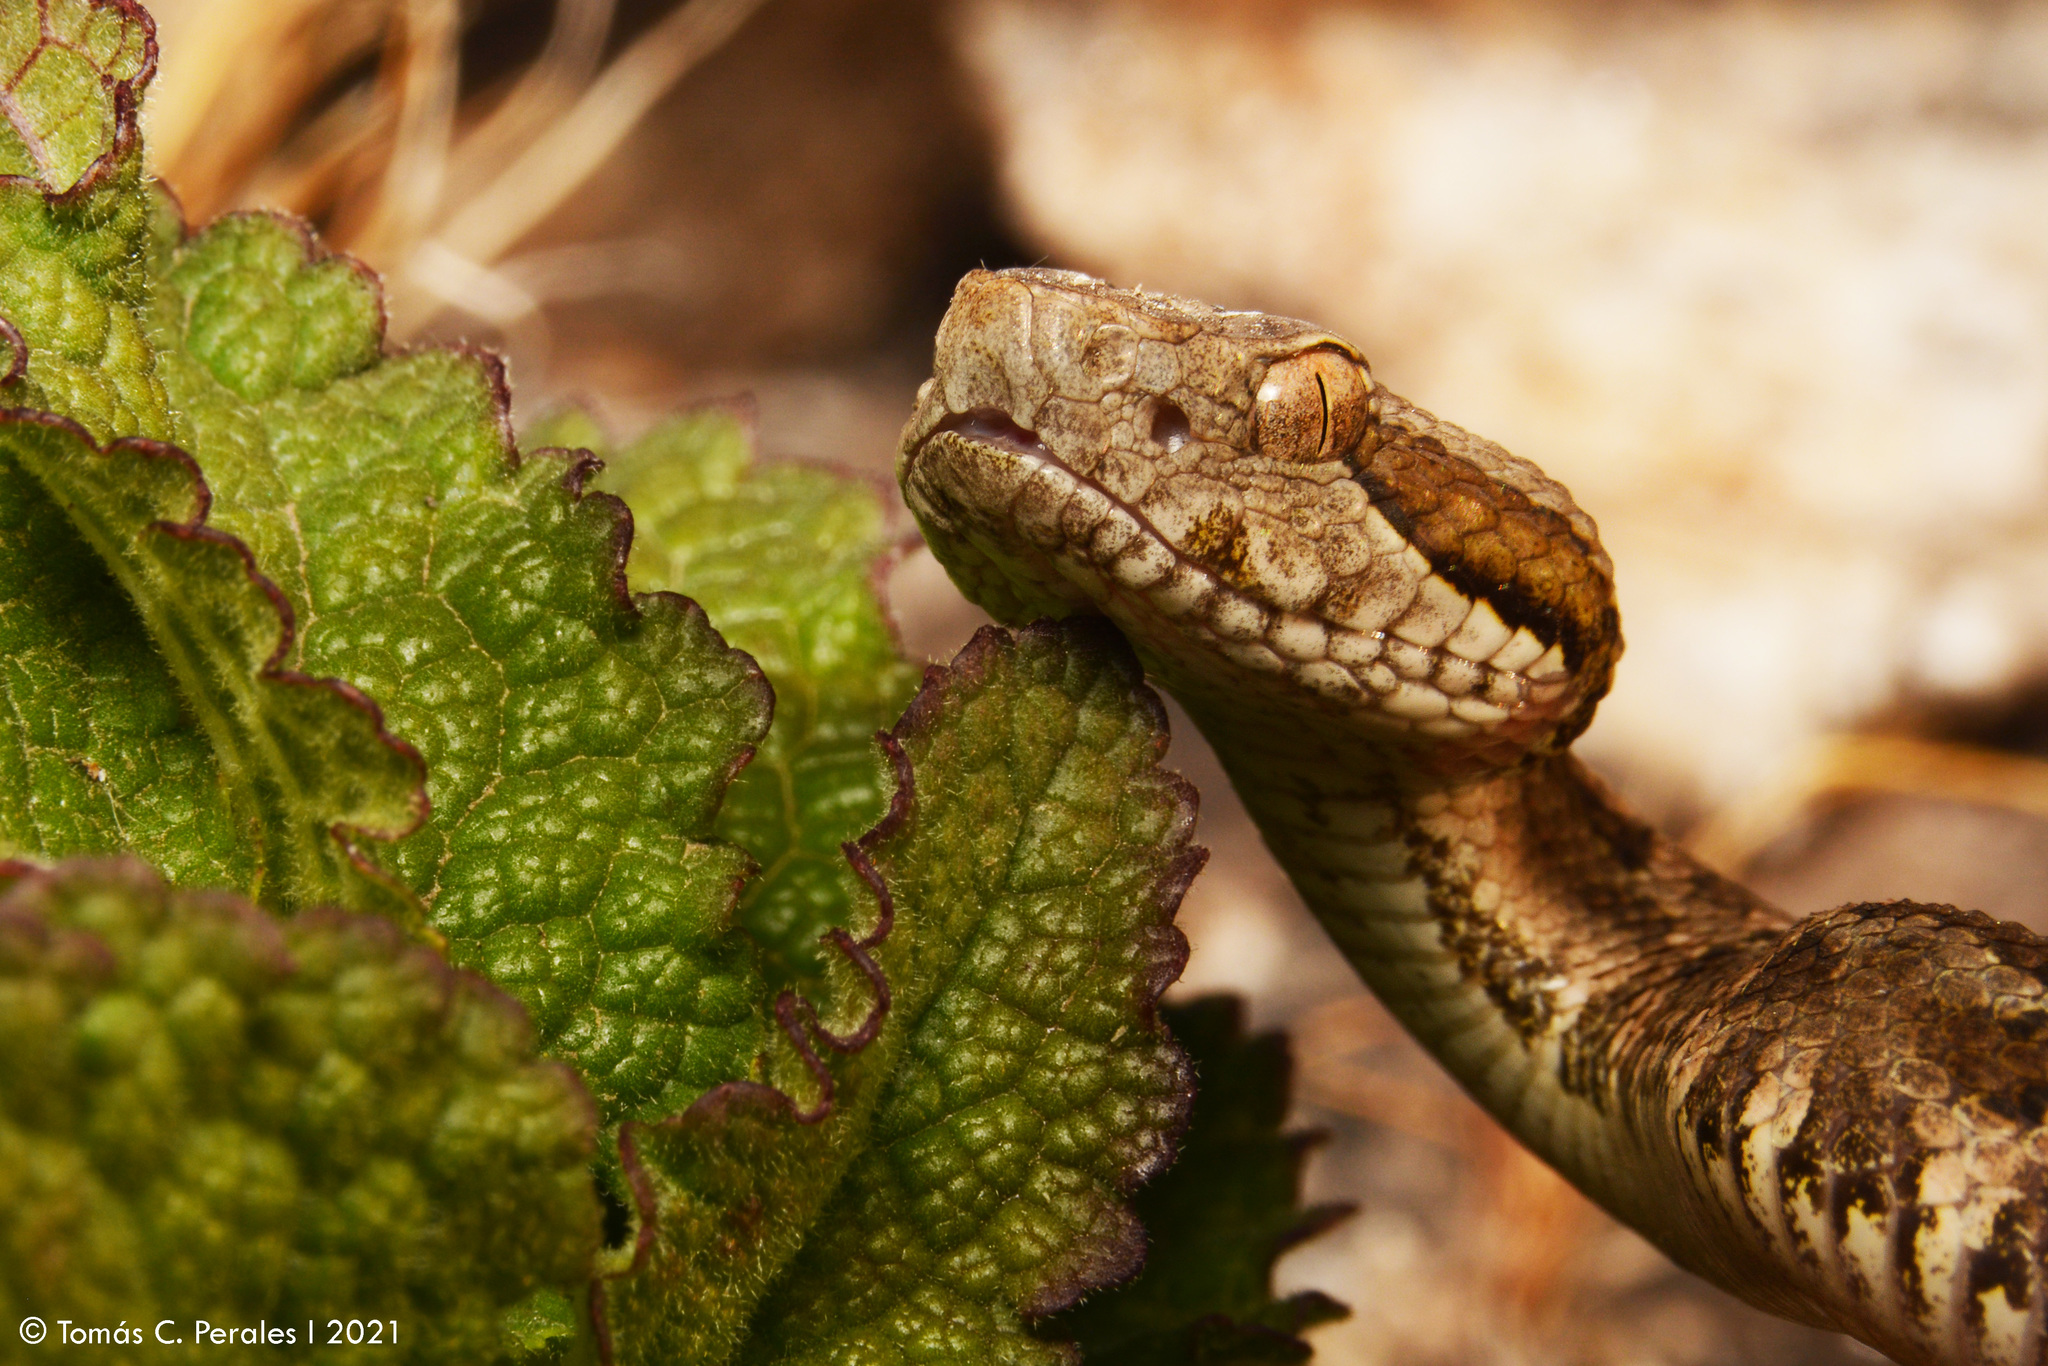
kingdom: Animalia
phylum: Chordata
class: Squamata
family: Viperidae
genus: Bothrops
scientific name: Bothrops diporus
